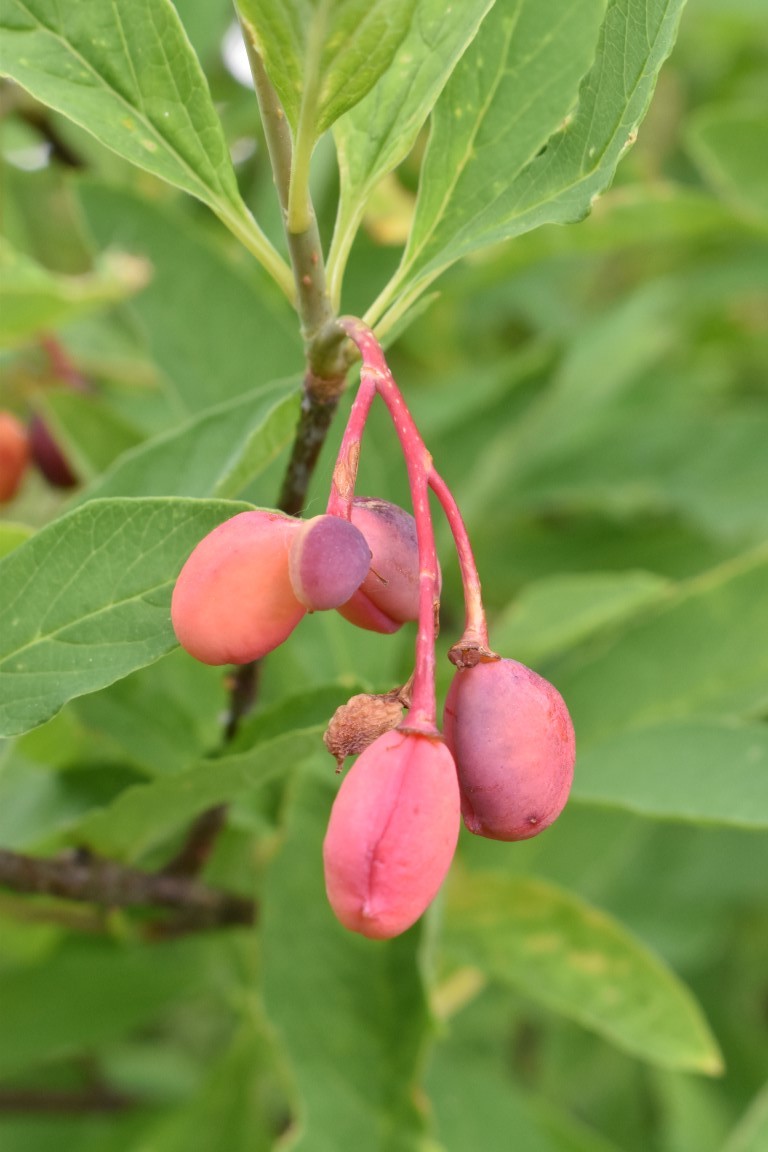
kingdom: Plantae
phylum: Tracheophyta
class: Magnoliopsida
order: Rosales
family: Rosaceae
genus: Oemleria
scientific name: Oemleria cerasiformis
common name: Osoberry
